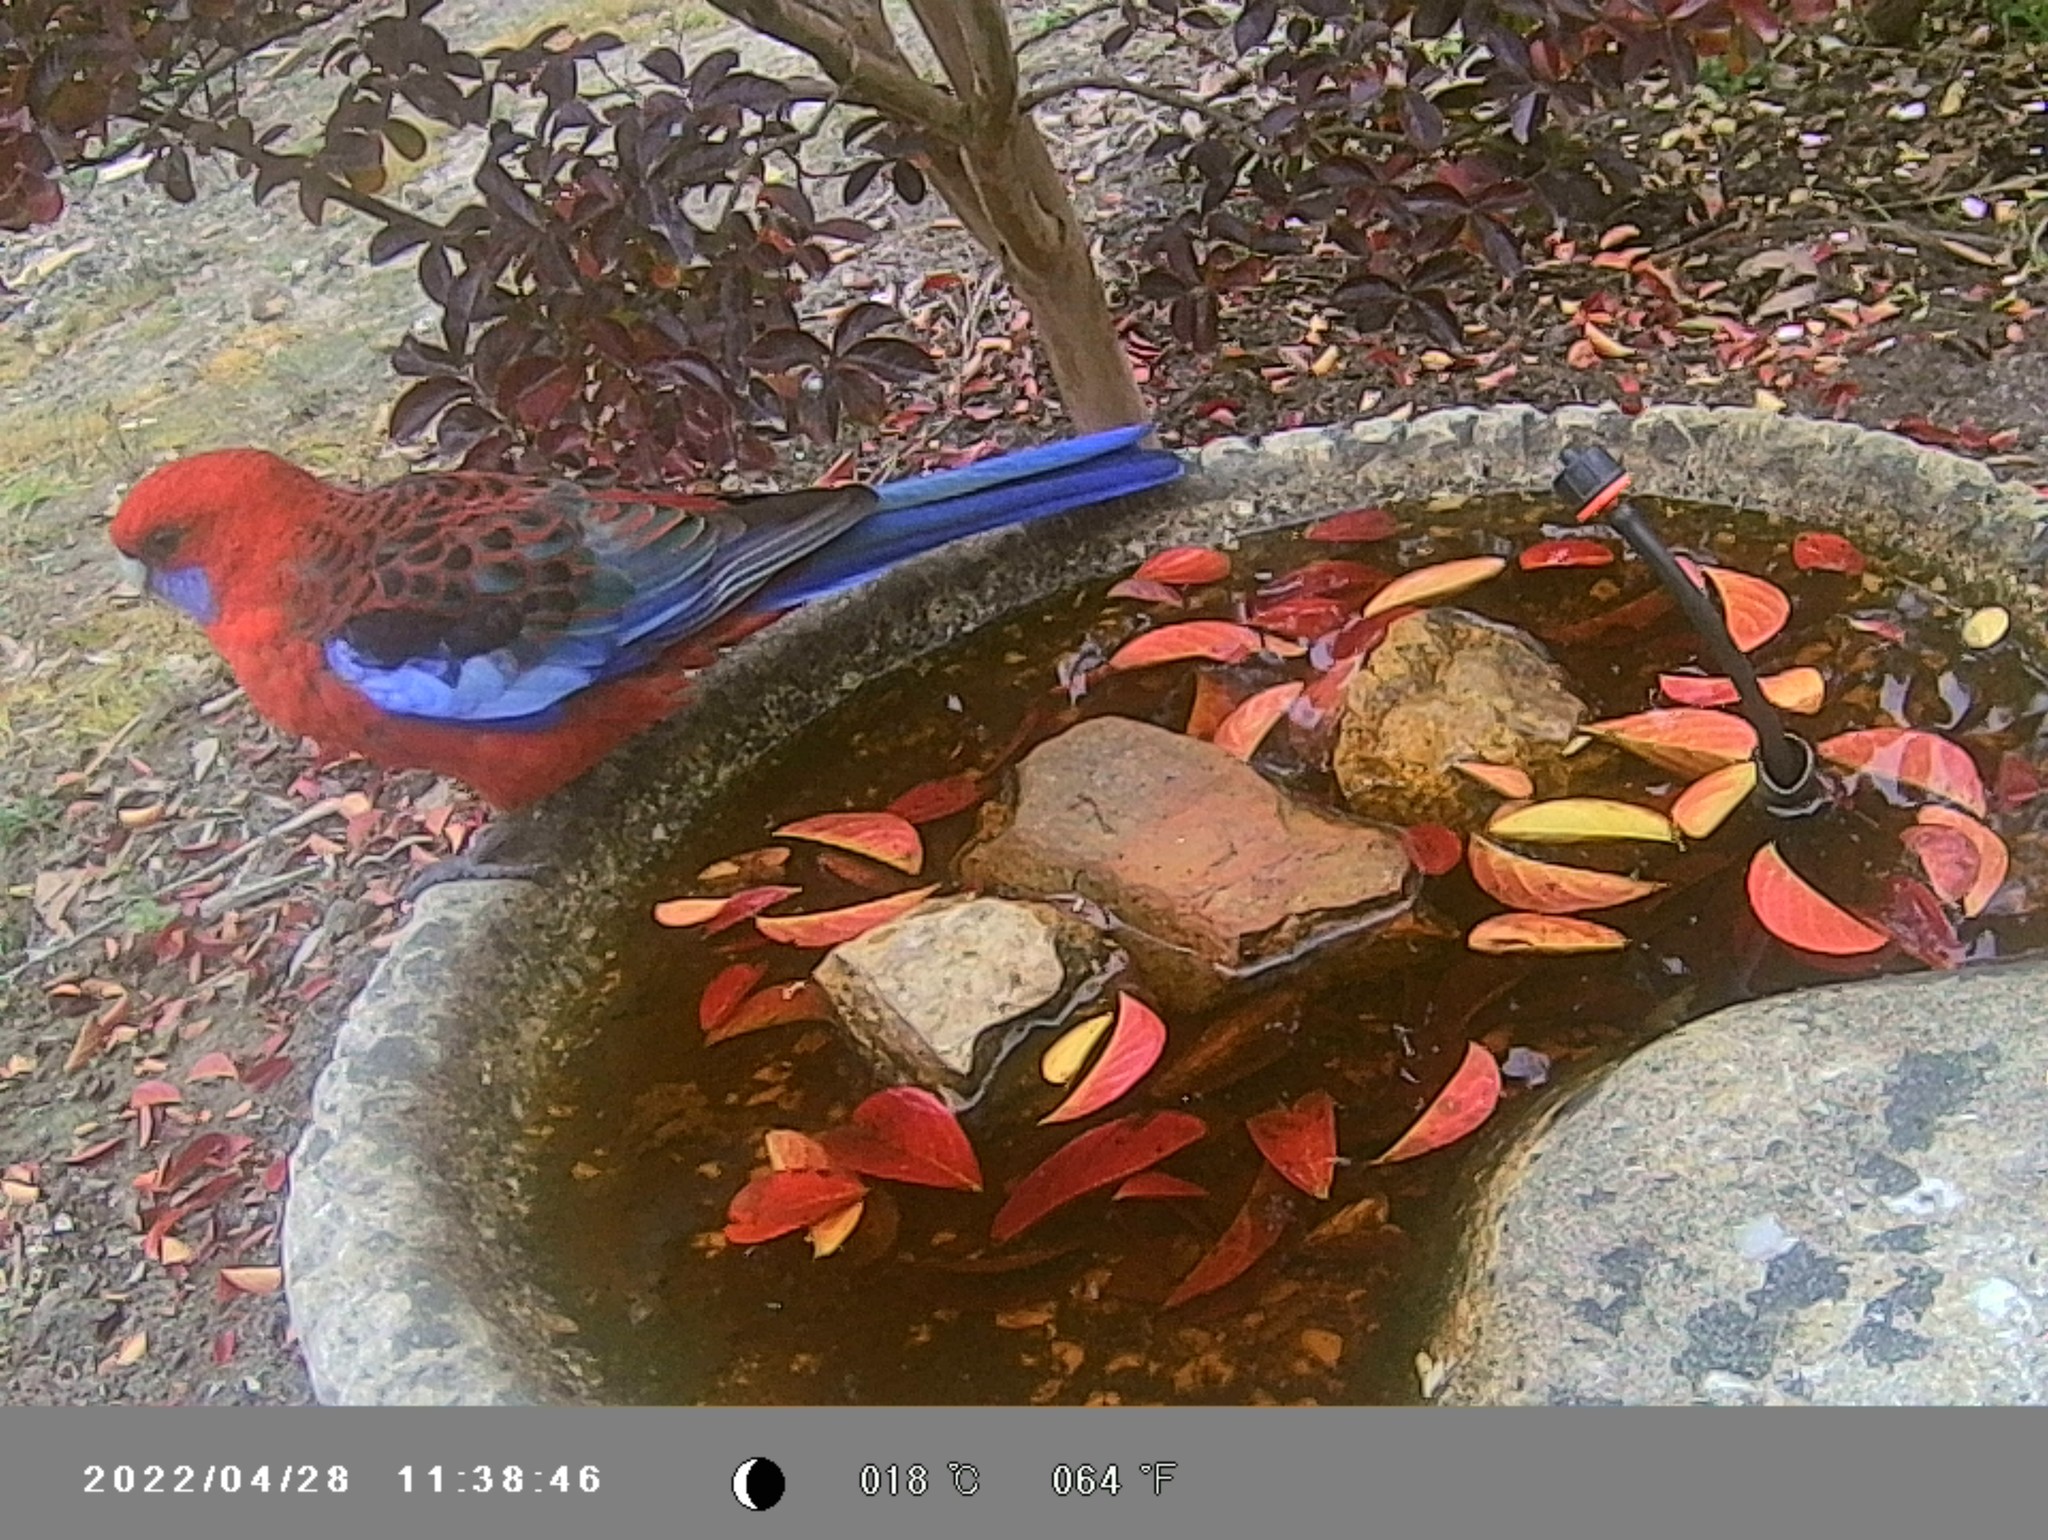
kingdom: Animalia
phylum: Chordata
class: Aves
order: Psittaciformes
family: Psittacidae
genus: Platycercus
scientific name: Platycercus elegans
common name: Crimson rosella
